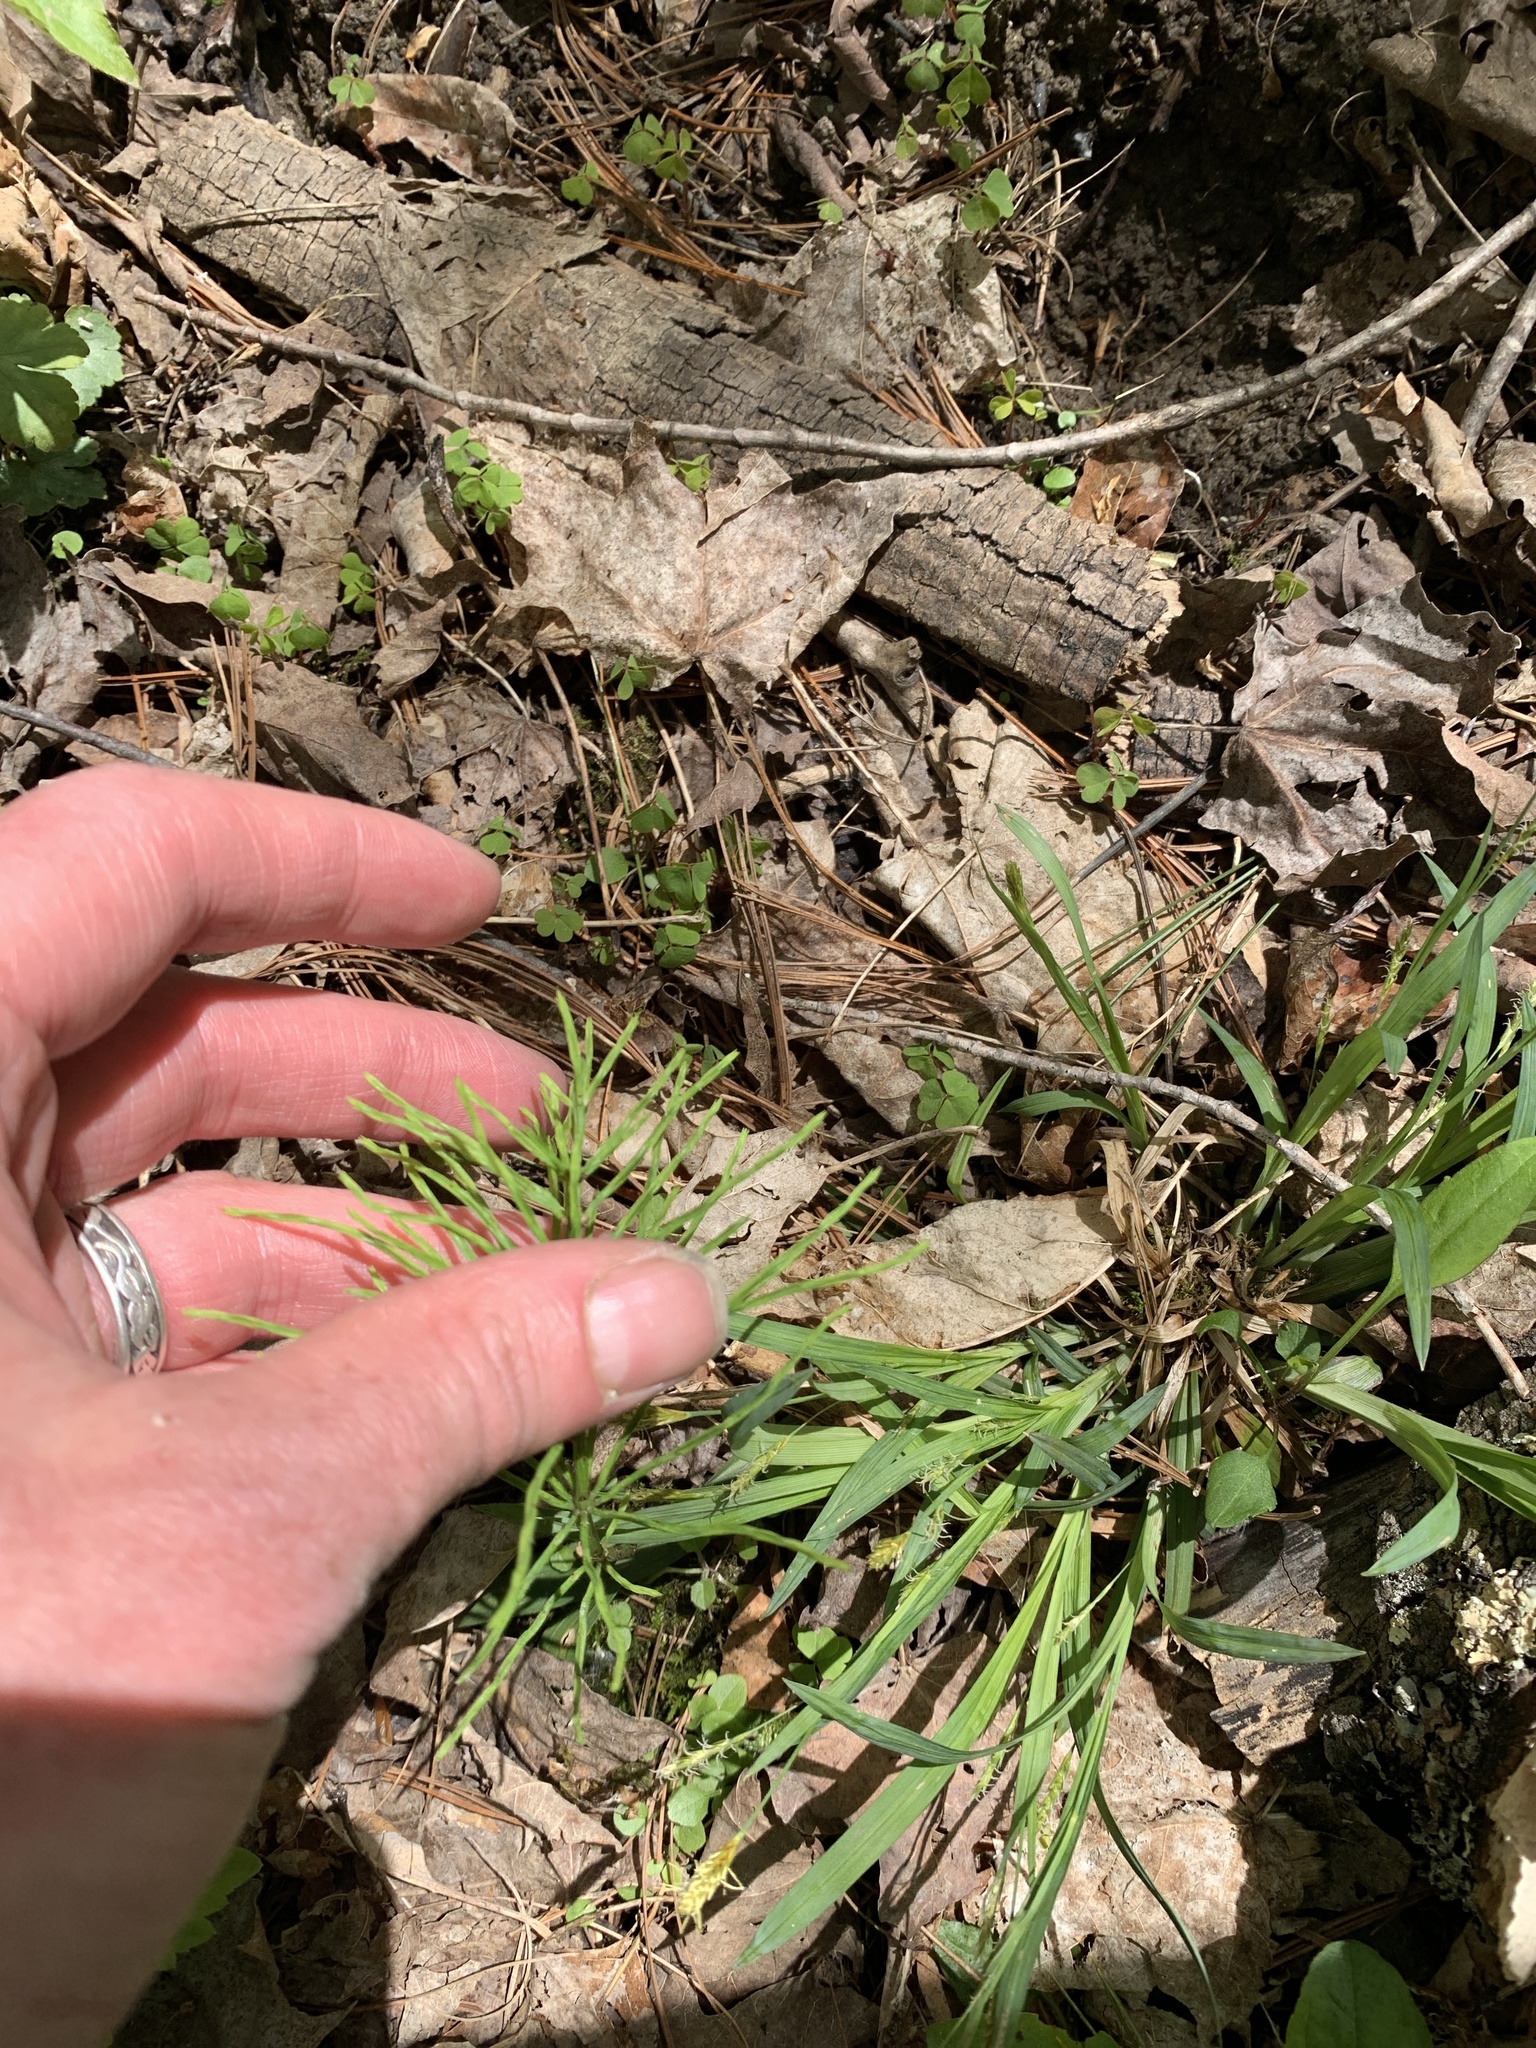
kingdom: Plantae
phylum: Tracheophyta
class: Polypodiopsida
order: Equisetales
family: Equisetaceae
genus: Equisetum
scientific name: Equisetum arvense
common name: Field horsetail
